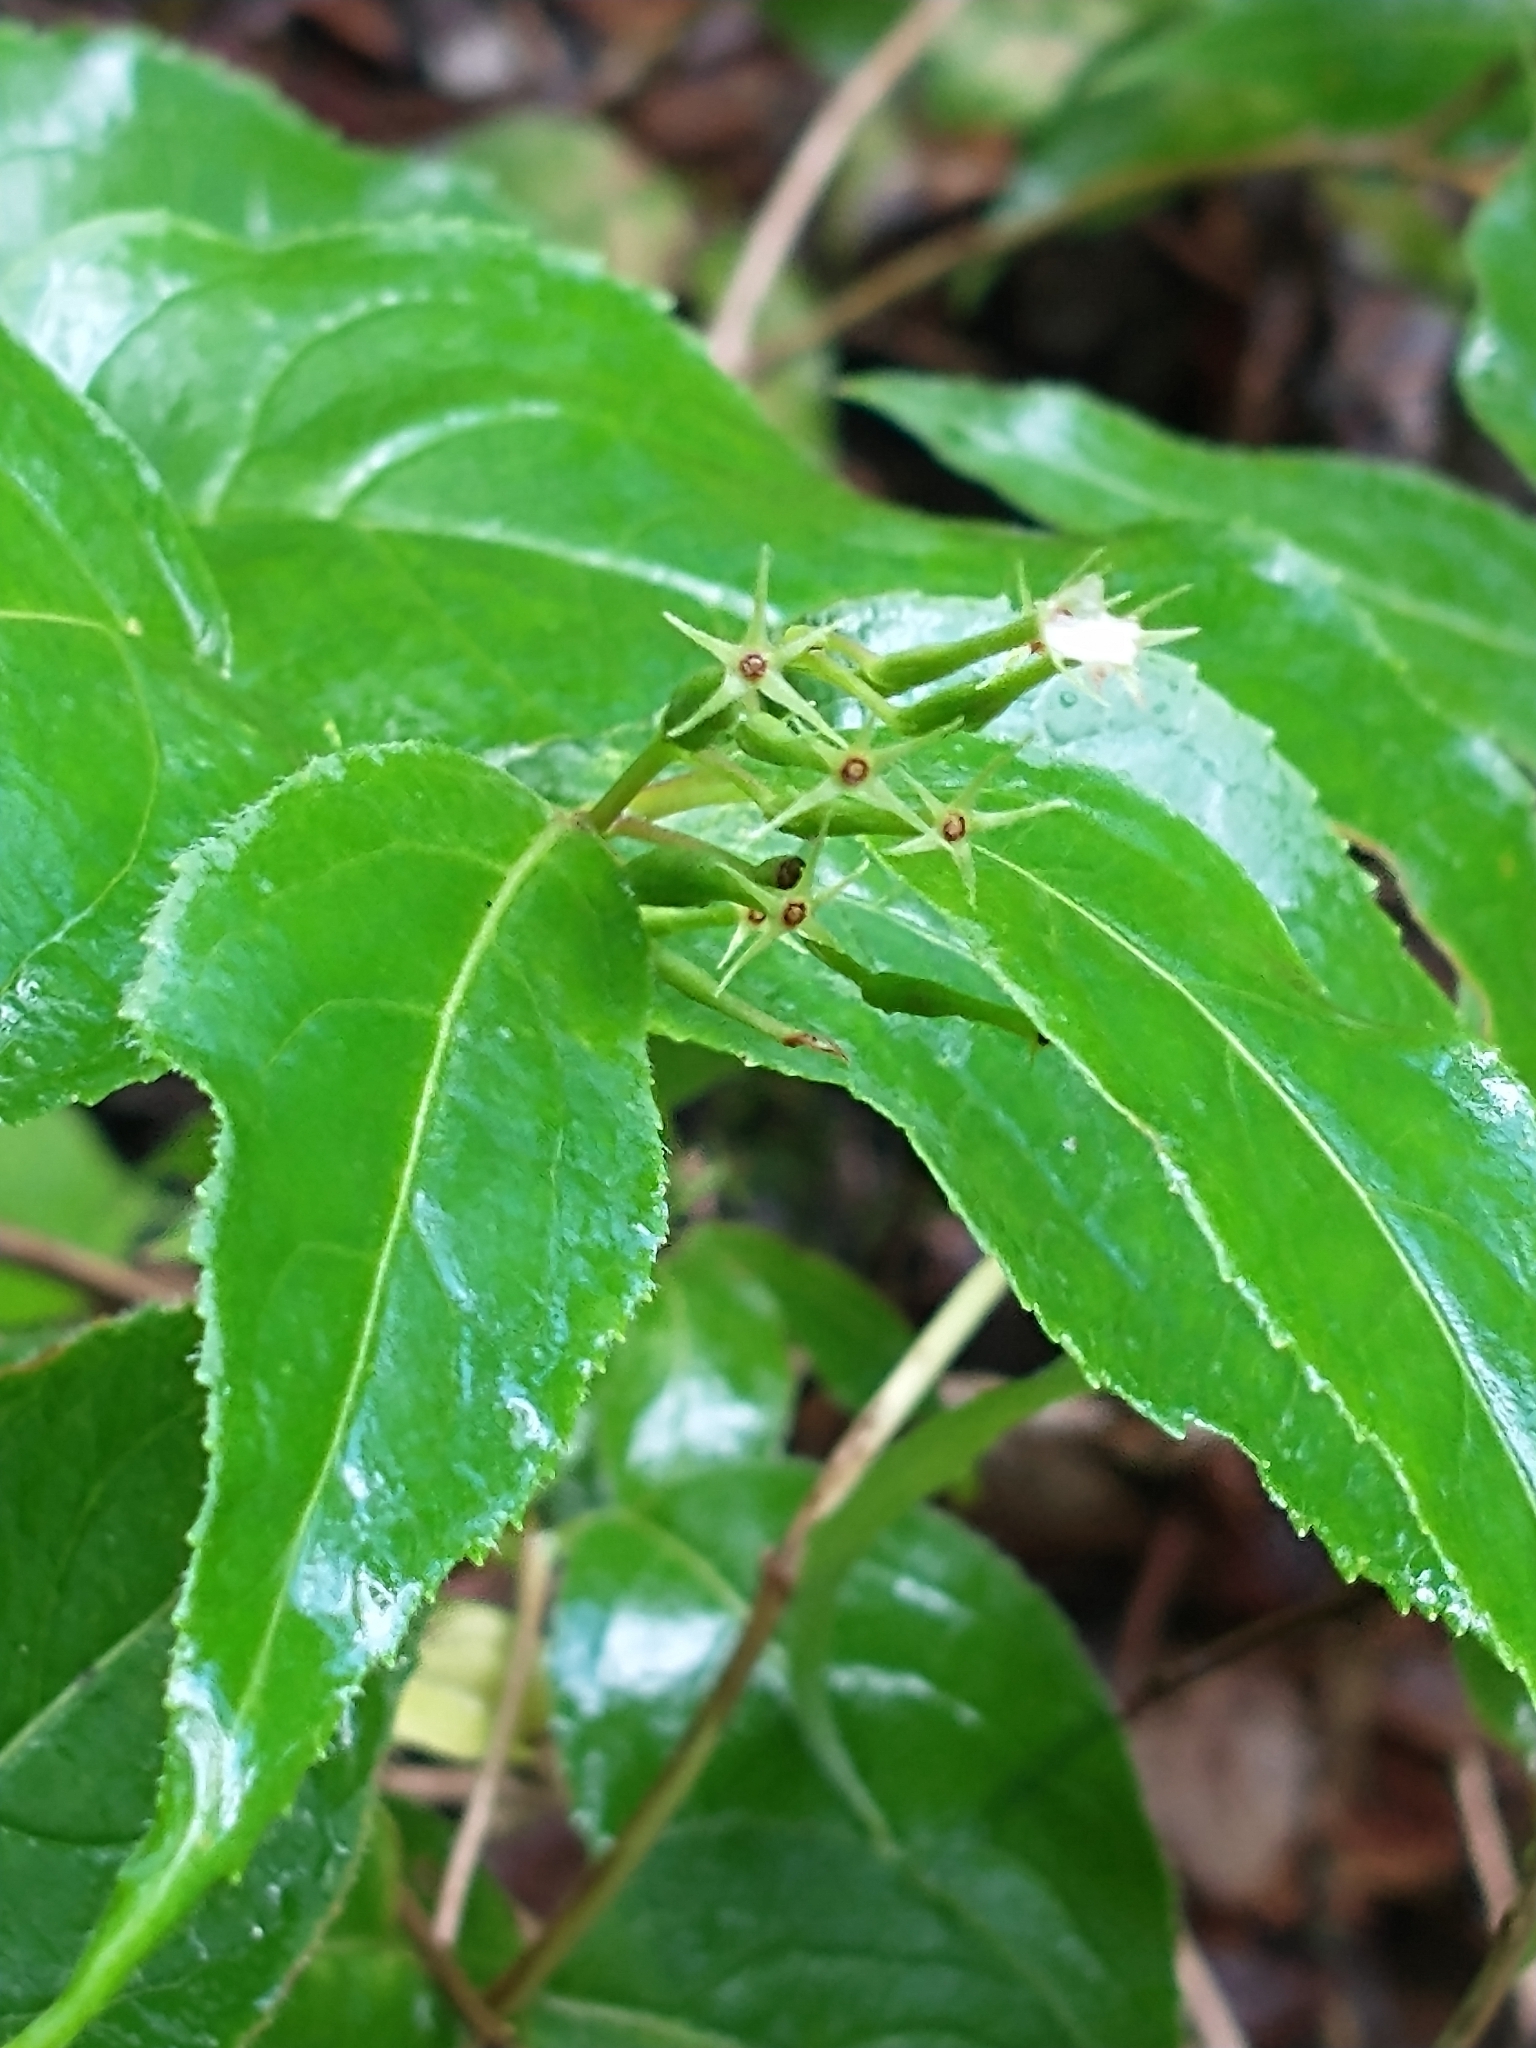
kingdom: Plantae
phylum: Tracheophyta
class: Magnoliopsida
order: Dipsacales
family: Caprifoliaceae
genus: Diervilla
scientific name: Diervilla lonicera
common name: Bush-honeysuckle
